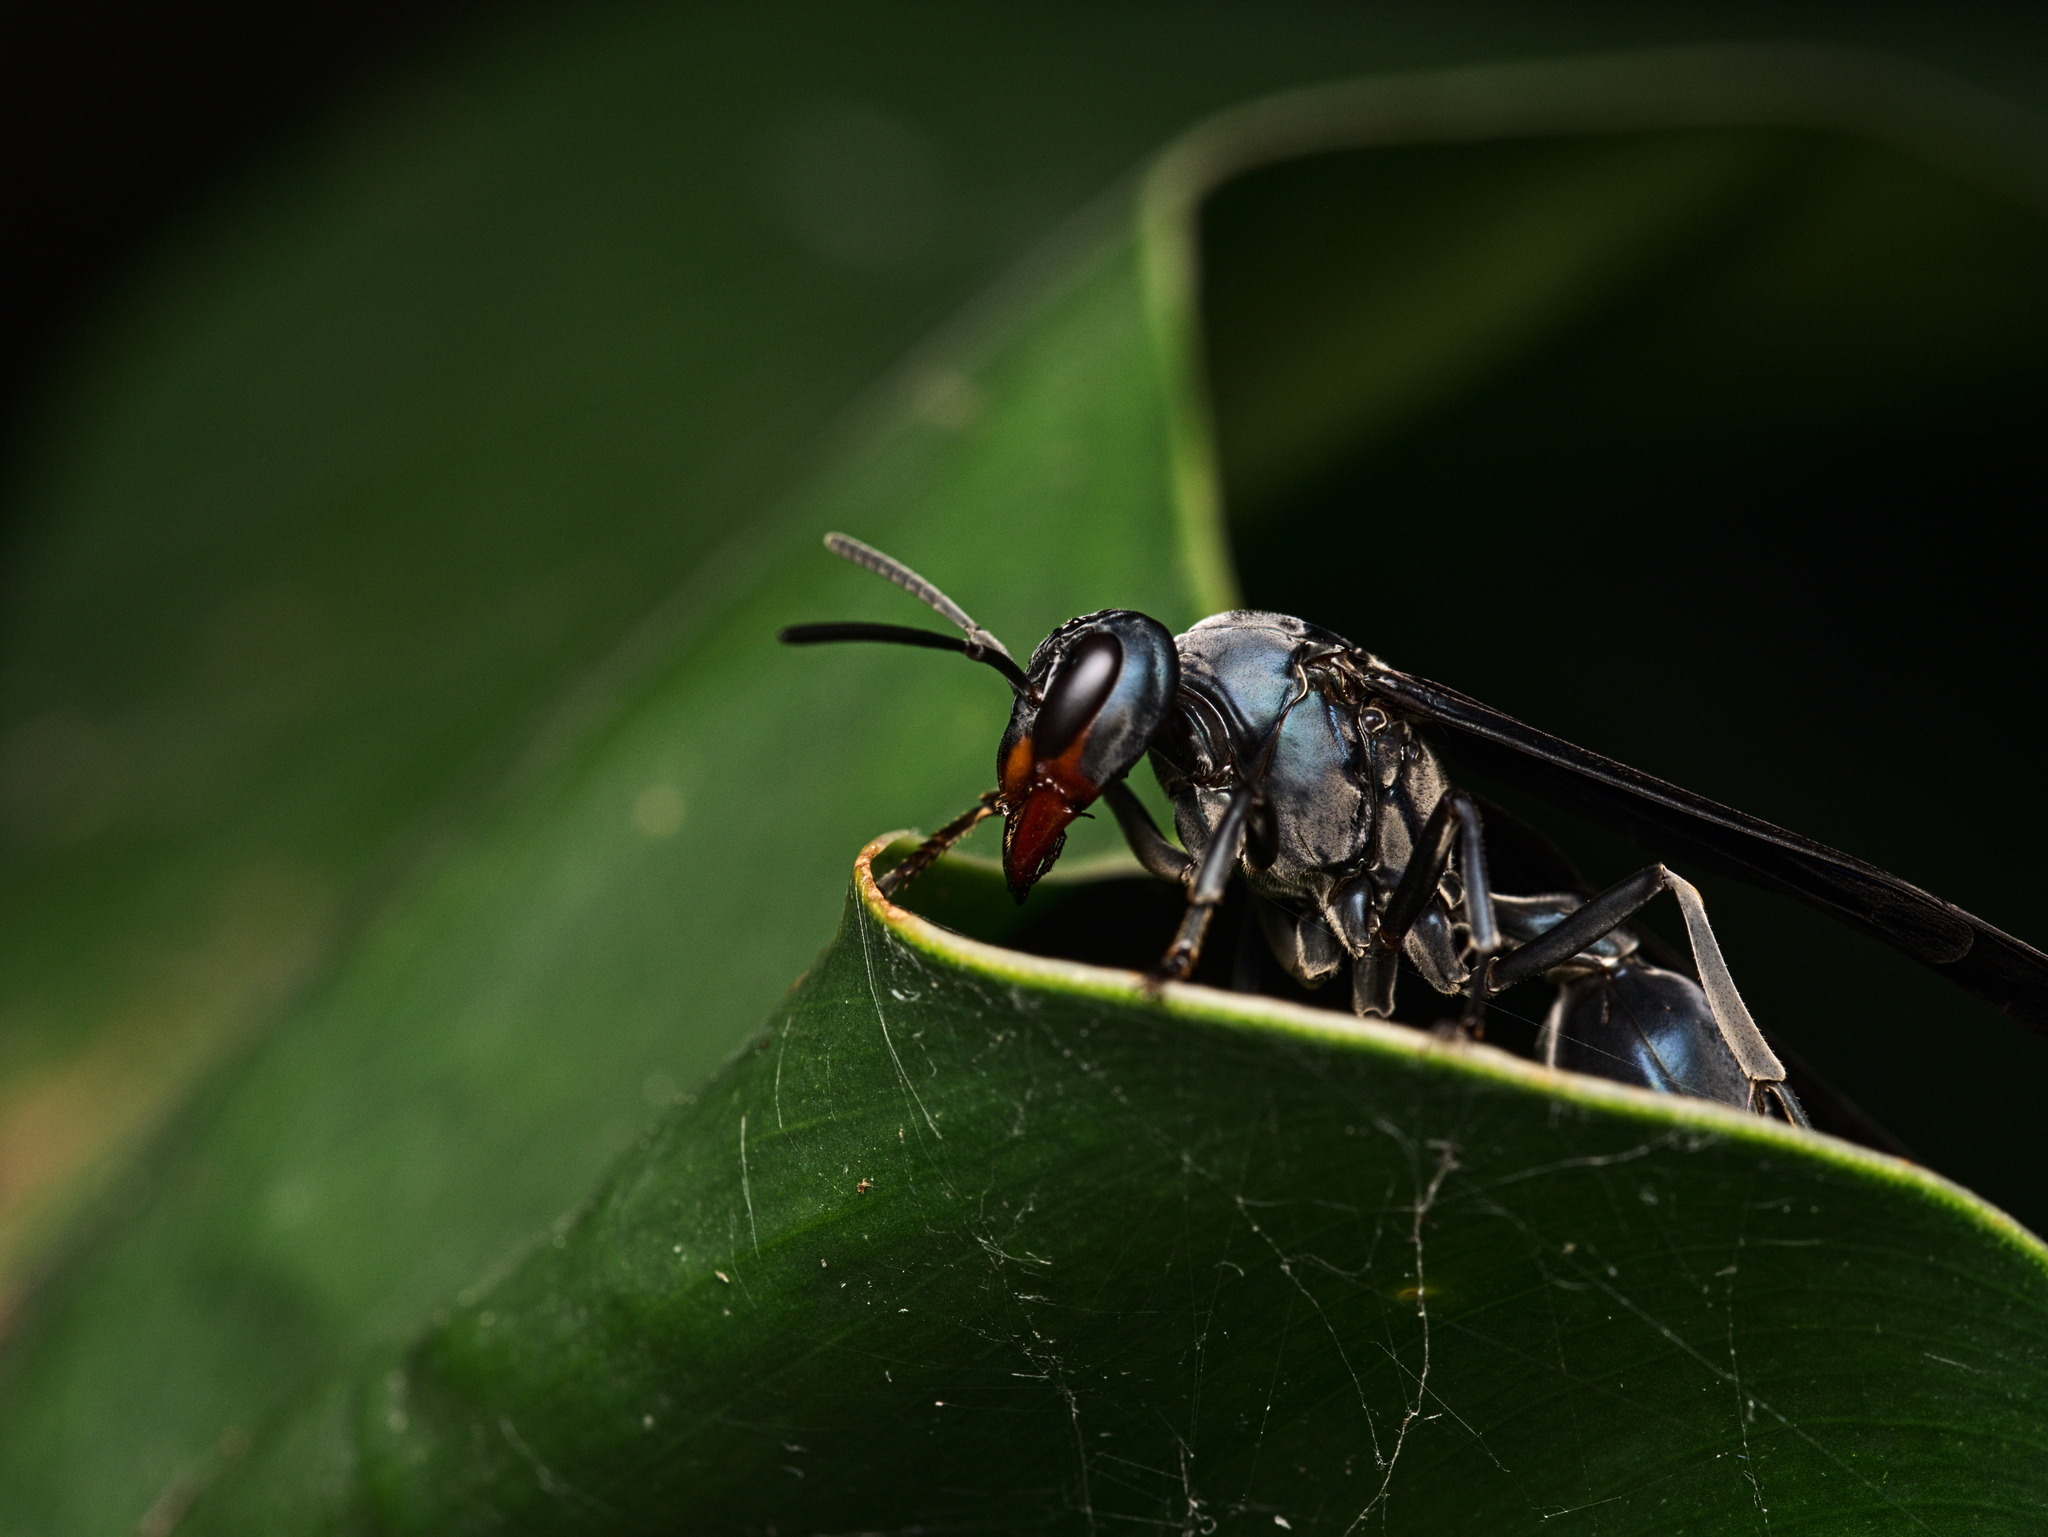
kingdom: Animalia
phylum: Arthropoda
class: Insecta
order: Hymenoptera
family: Vespidae
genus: Synoeca
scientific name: Synoeca septentrionalis
